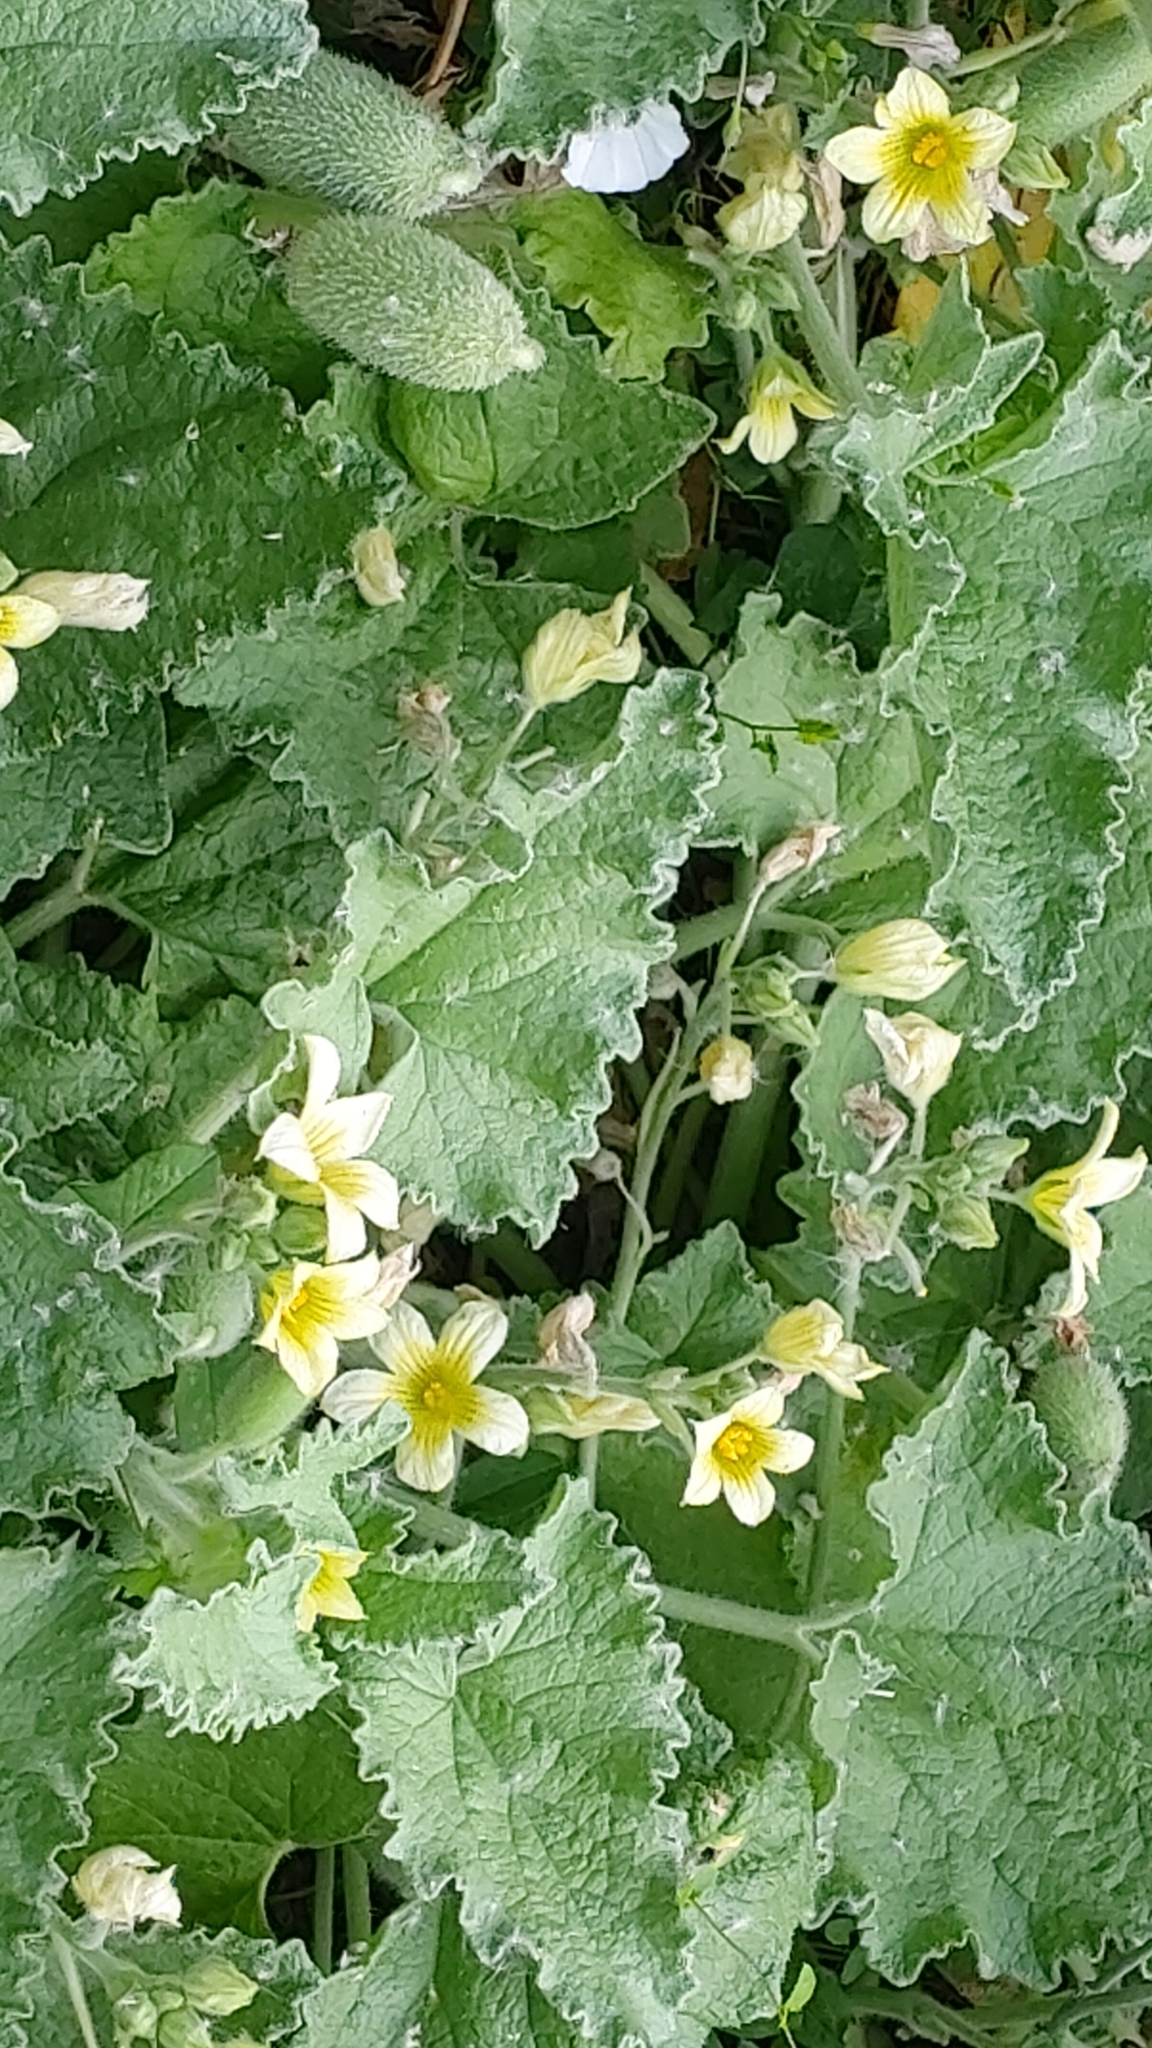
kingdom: Plantae
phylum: Tracheophyta
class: Magnoliopsida
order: Cucurbitales
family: Cucurbitaceae
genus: Ecballium
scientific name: Ecballium elaterium
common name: Squirting cucumber
